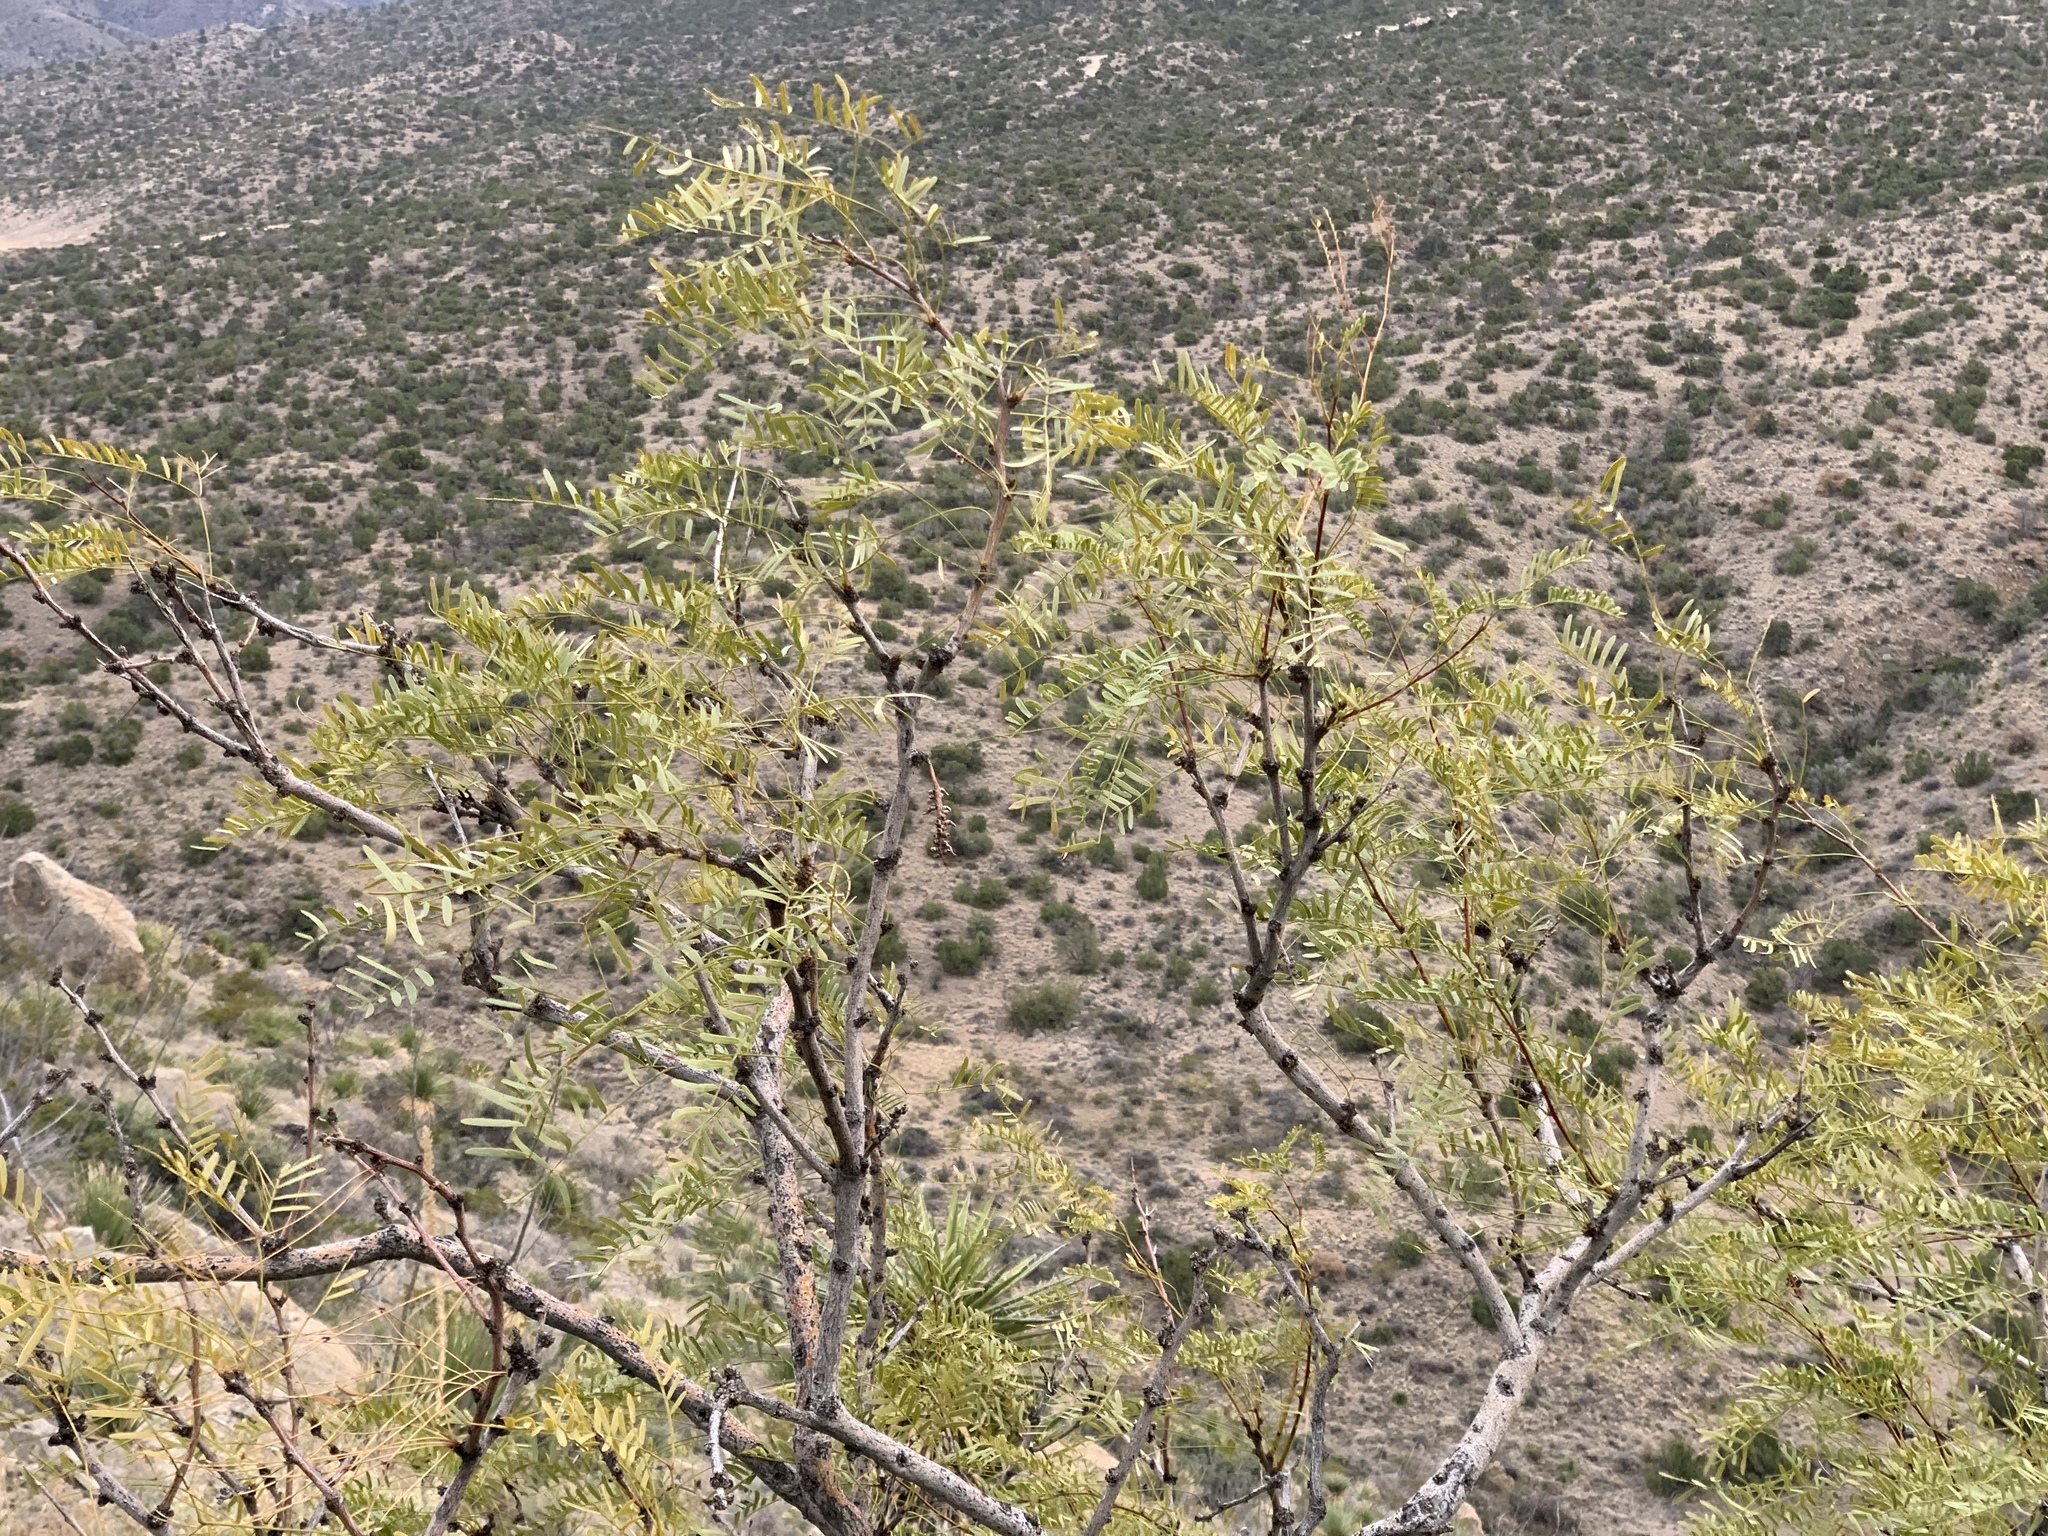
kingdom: Plantae
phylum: Tracheophyta
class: Magnoliopsida
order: Fabales
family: Fabaceae
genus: Prosopis
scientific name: Prosopis glandulosa
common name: Honey mesquite
